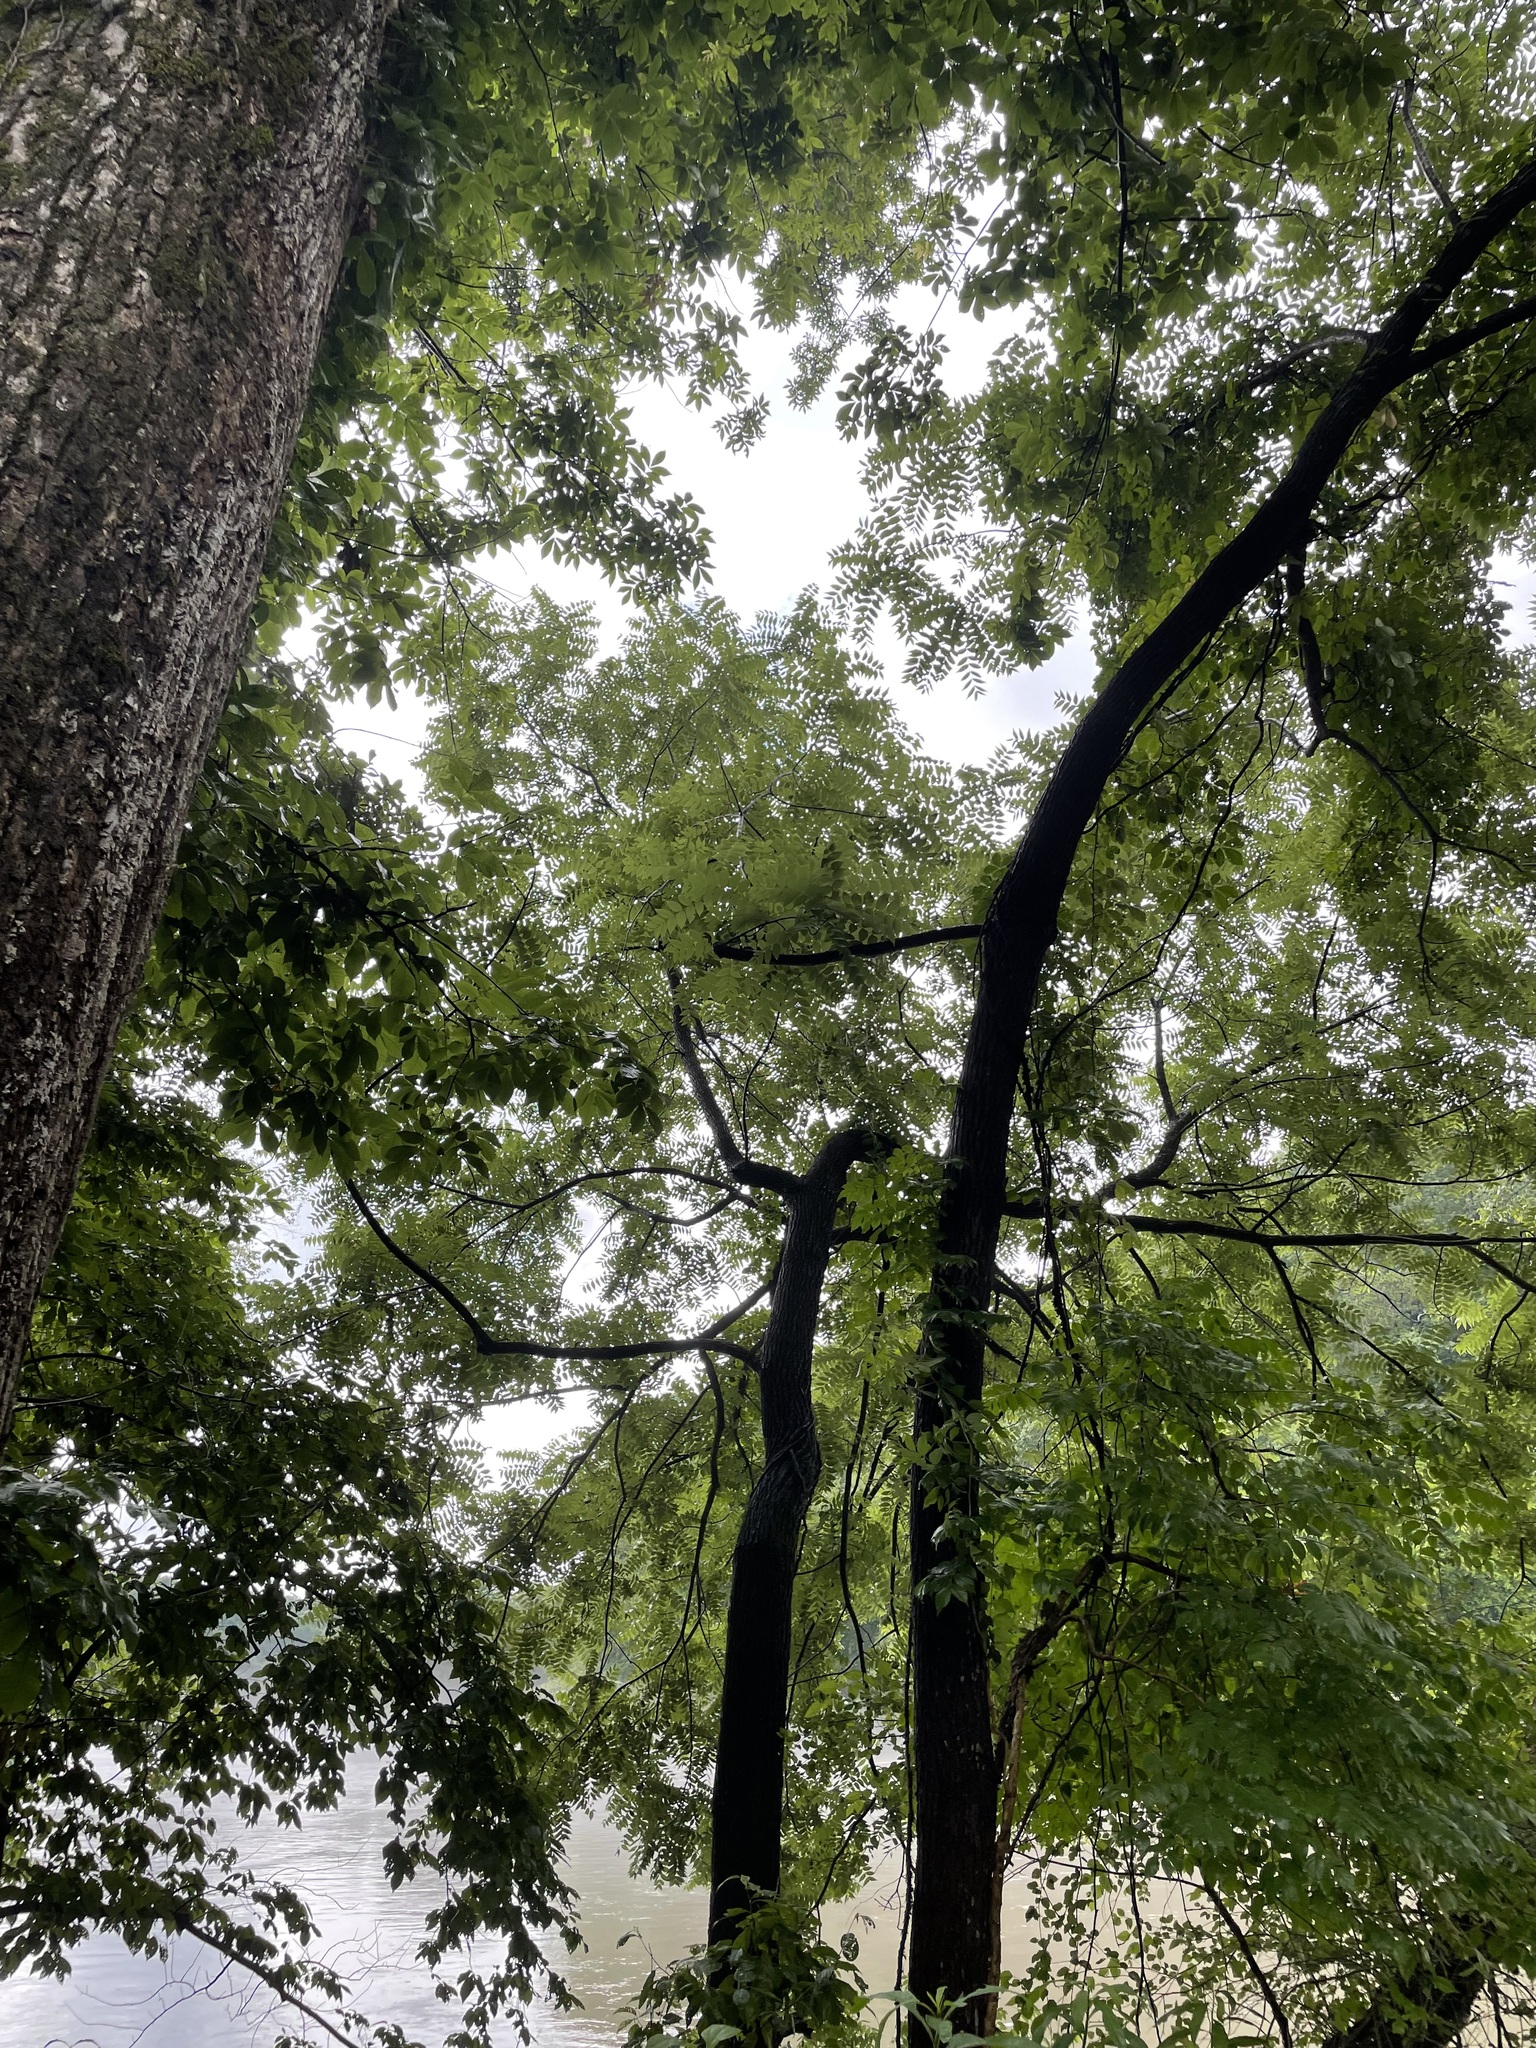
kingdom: Plantae
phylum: Tracheophyta
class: Magnoliopsida
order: Fagales
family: Juglandaceae
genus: Juglans
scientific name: Juglans nigra
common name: Black walnut
